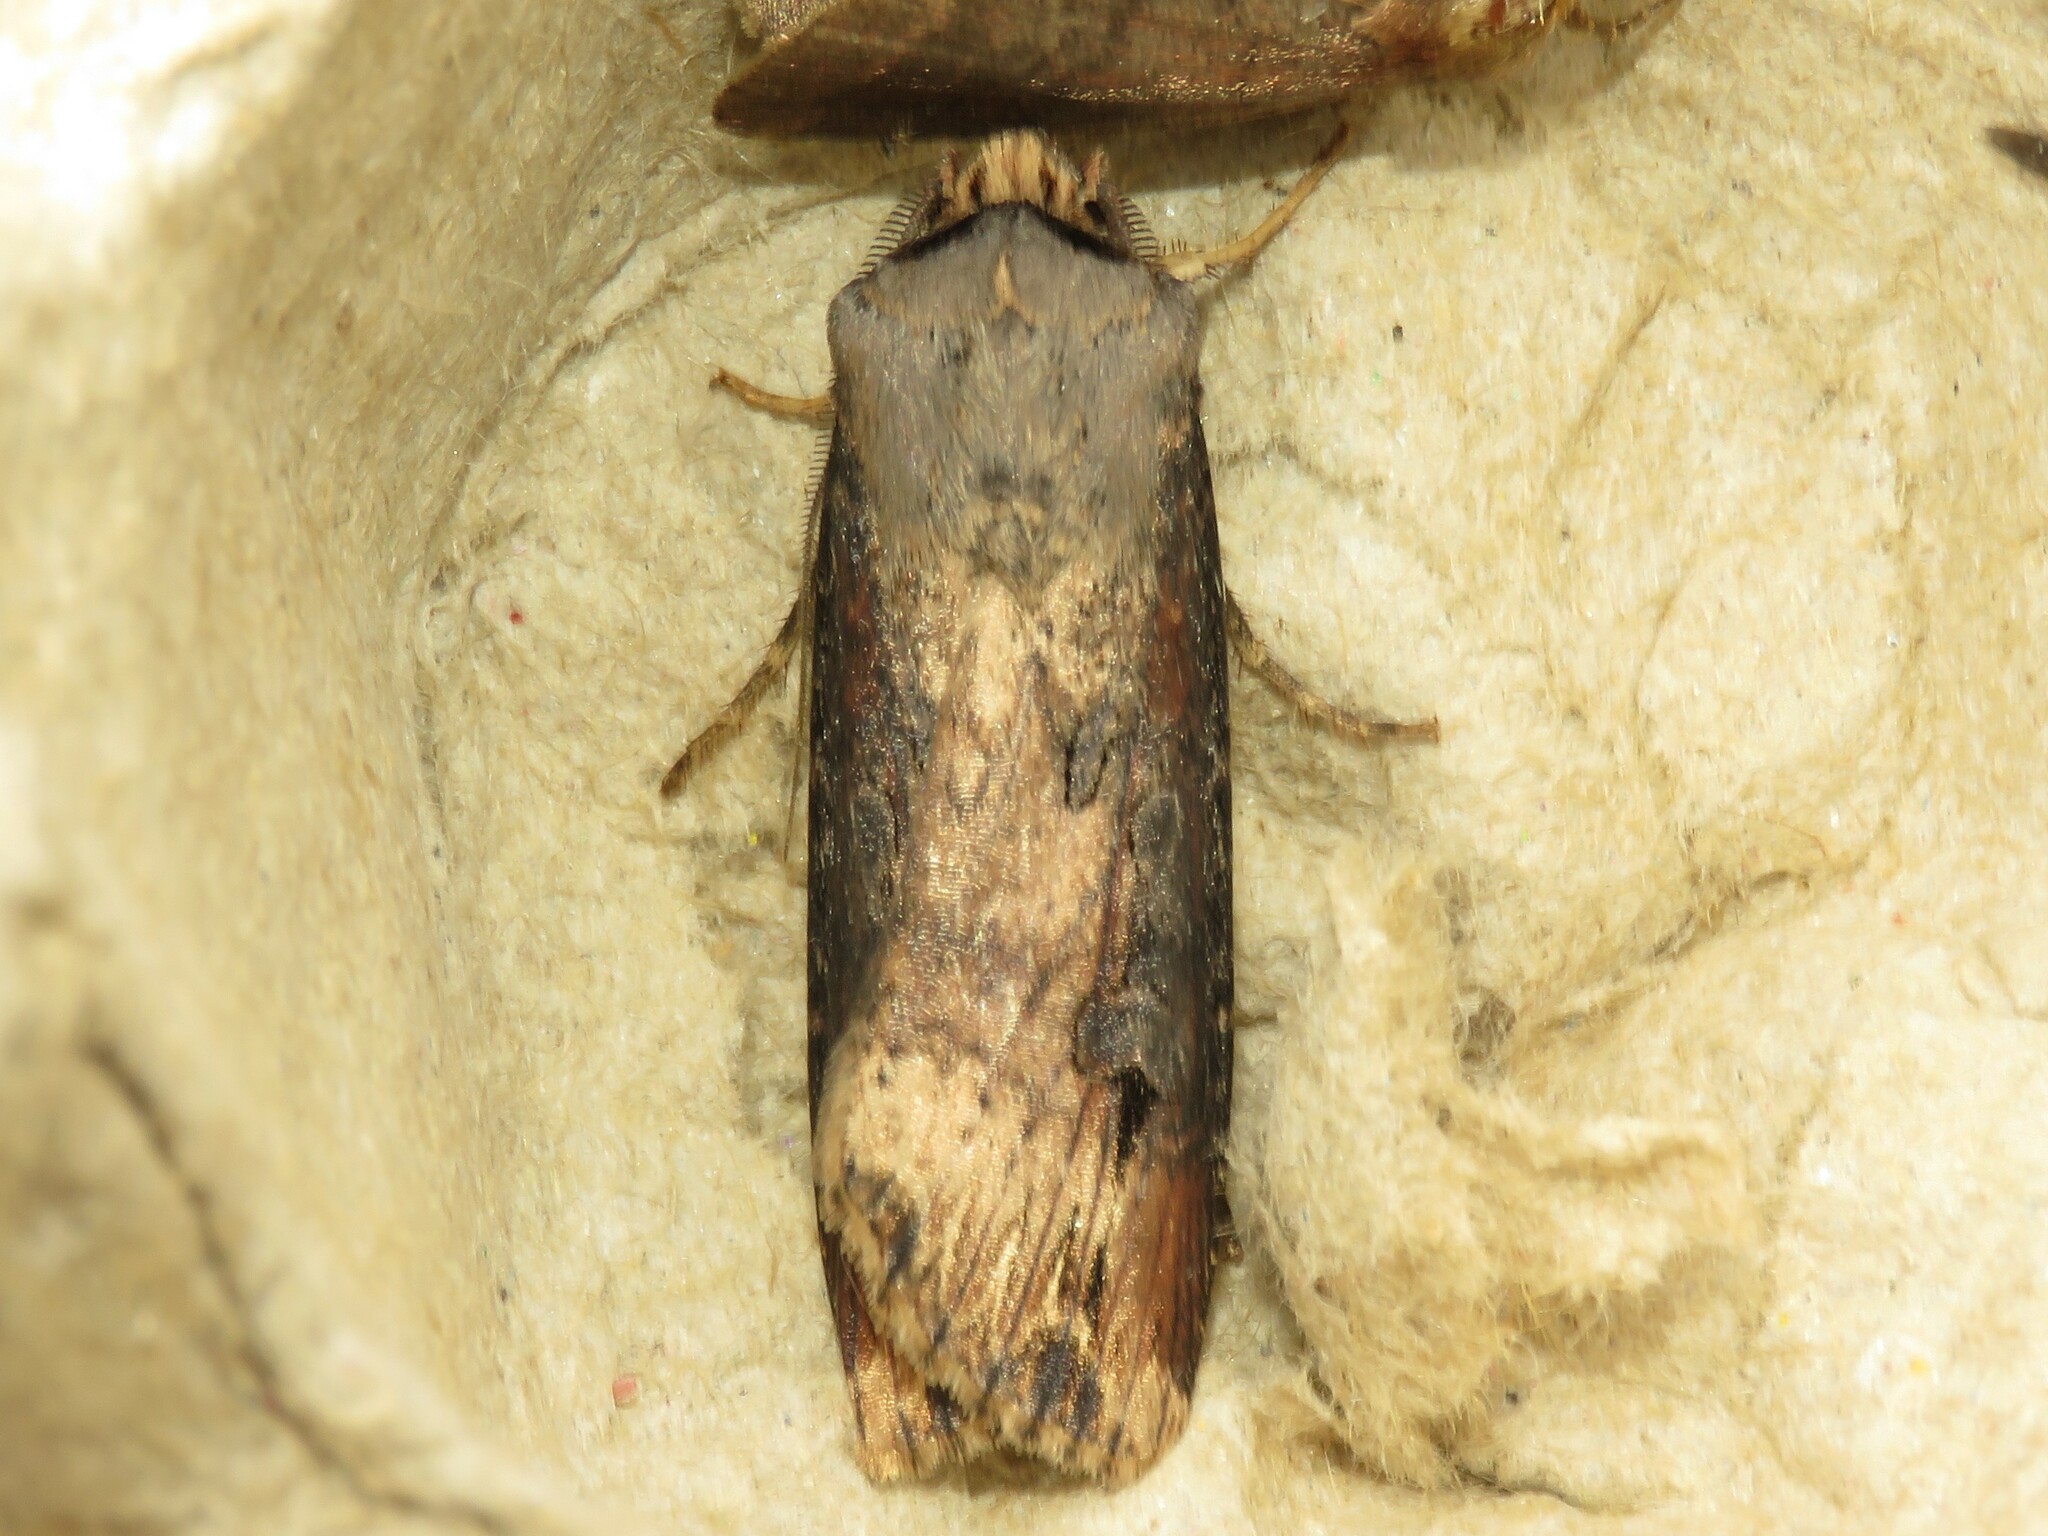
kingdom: Animalia
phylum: Arthropoda
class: Insecta
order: Lepidoptera
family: Noctuidae
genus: Agrotis
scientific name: Agrotis ipsilon
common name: Dark sword-grass
